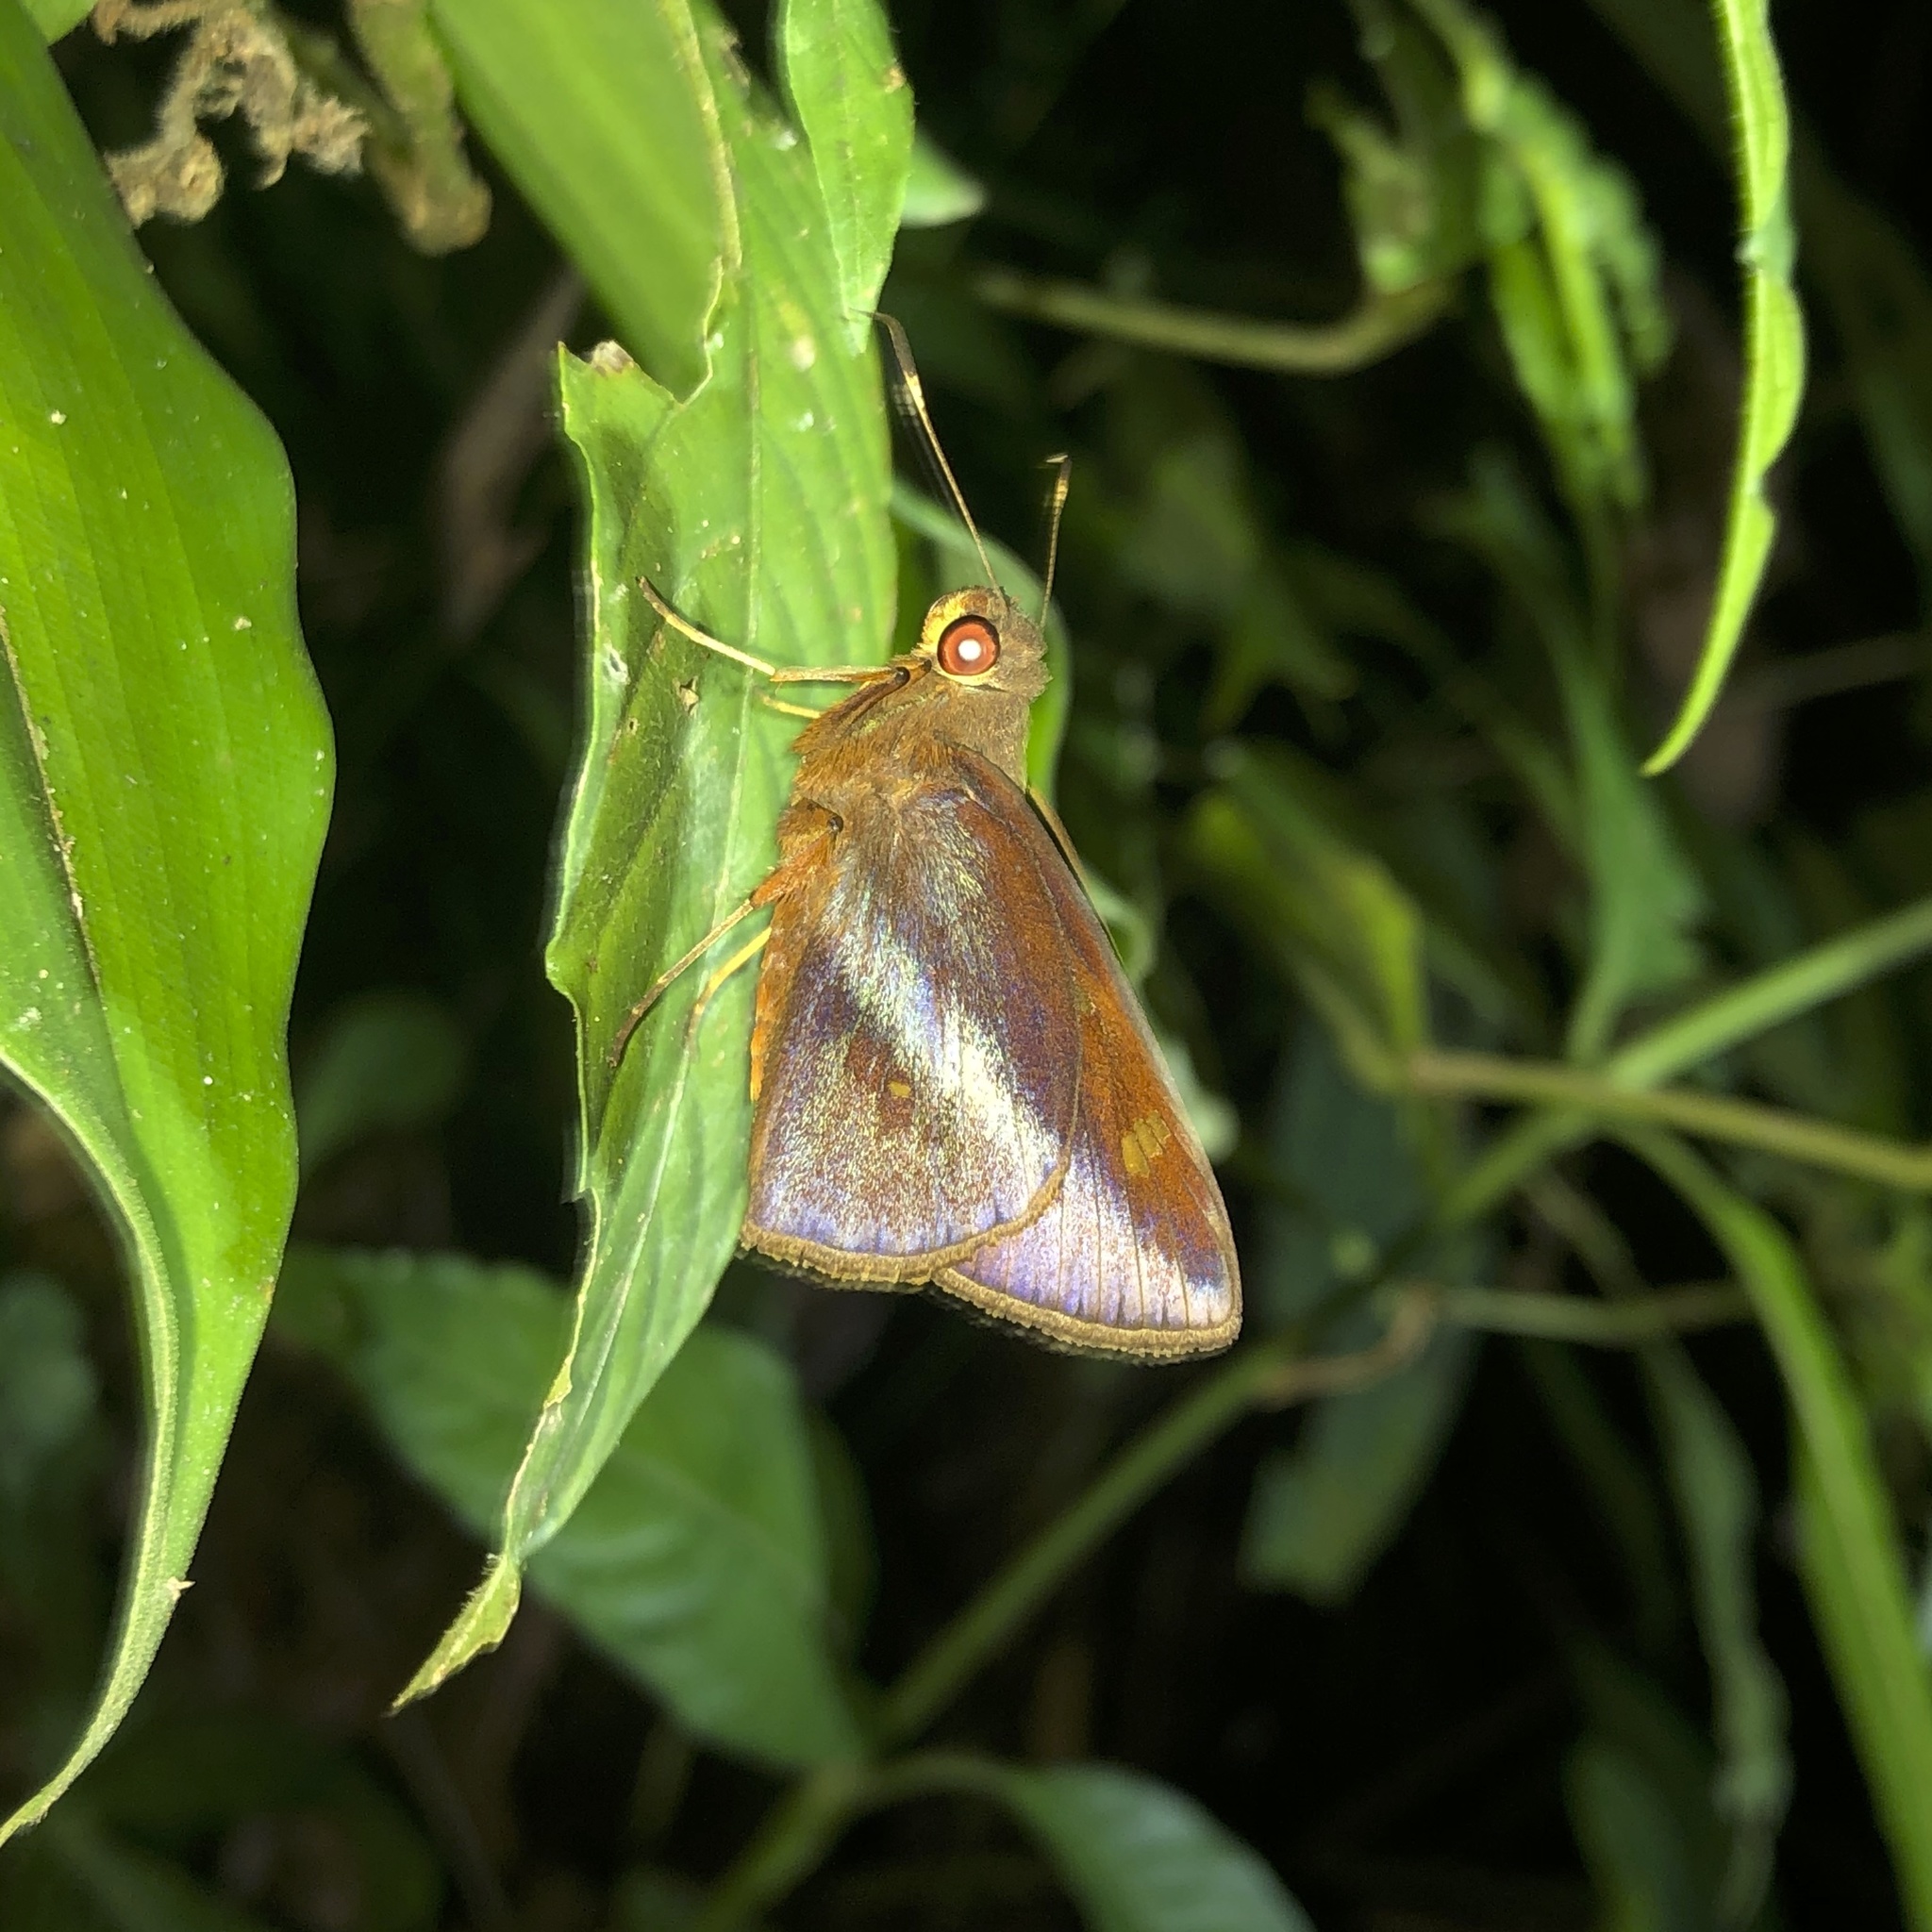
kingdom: Animalia
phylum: Arthropoda
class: Insecta
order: Lepidoptera
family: Hesperiidae
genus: Talides
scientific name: Talides sergestus
